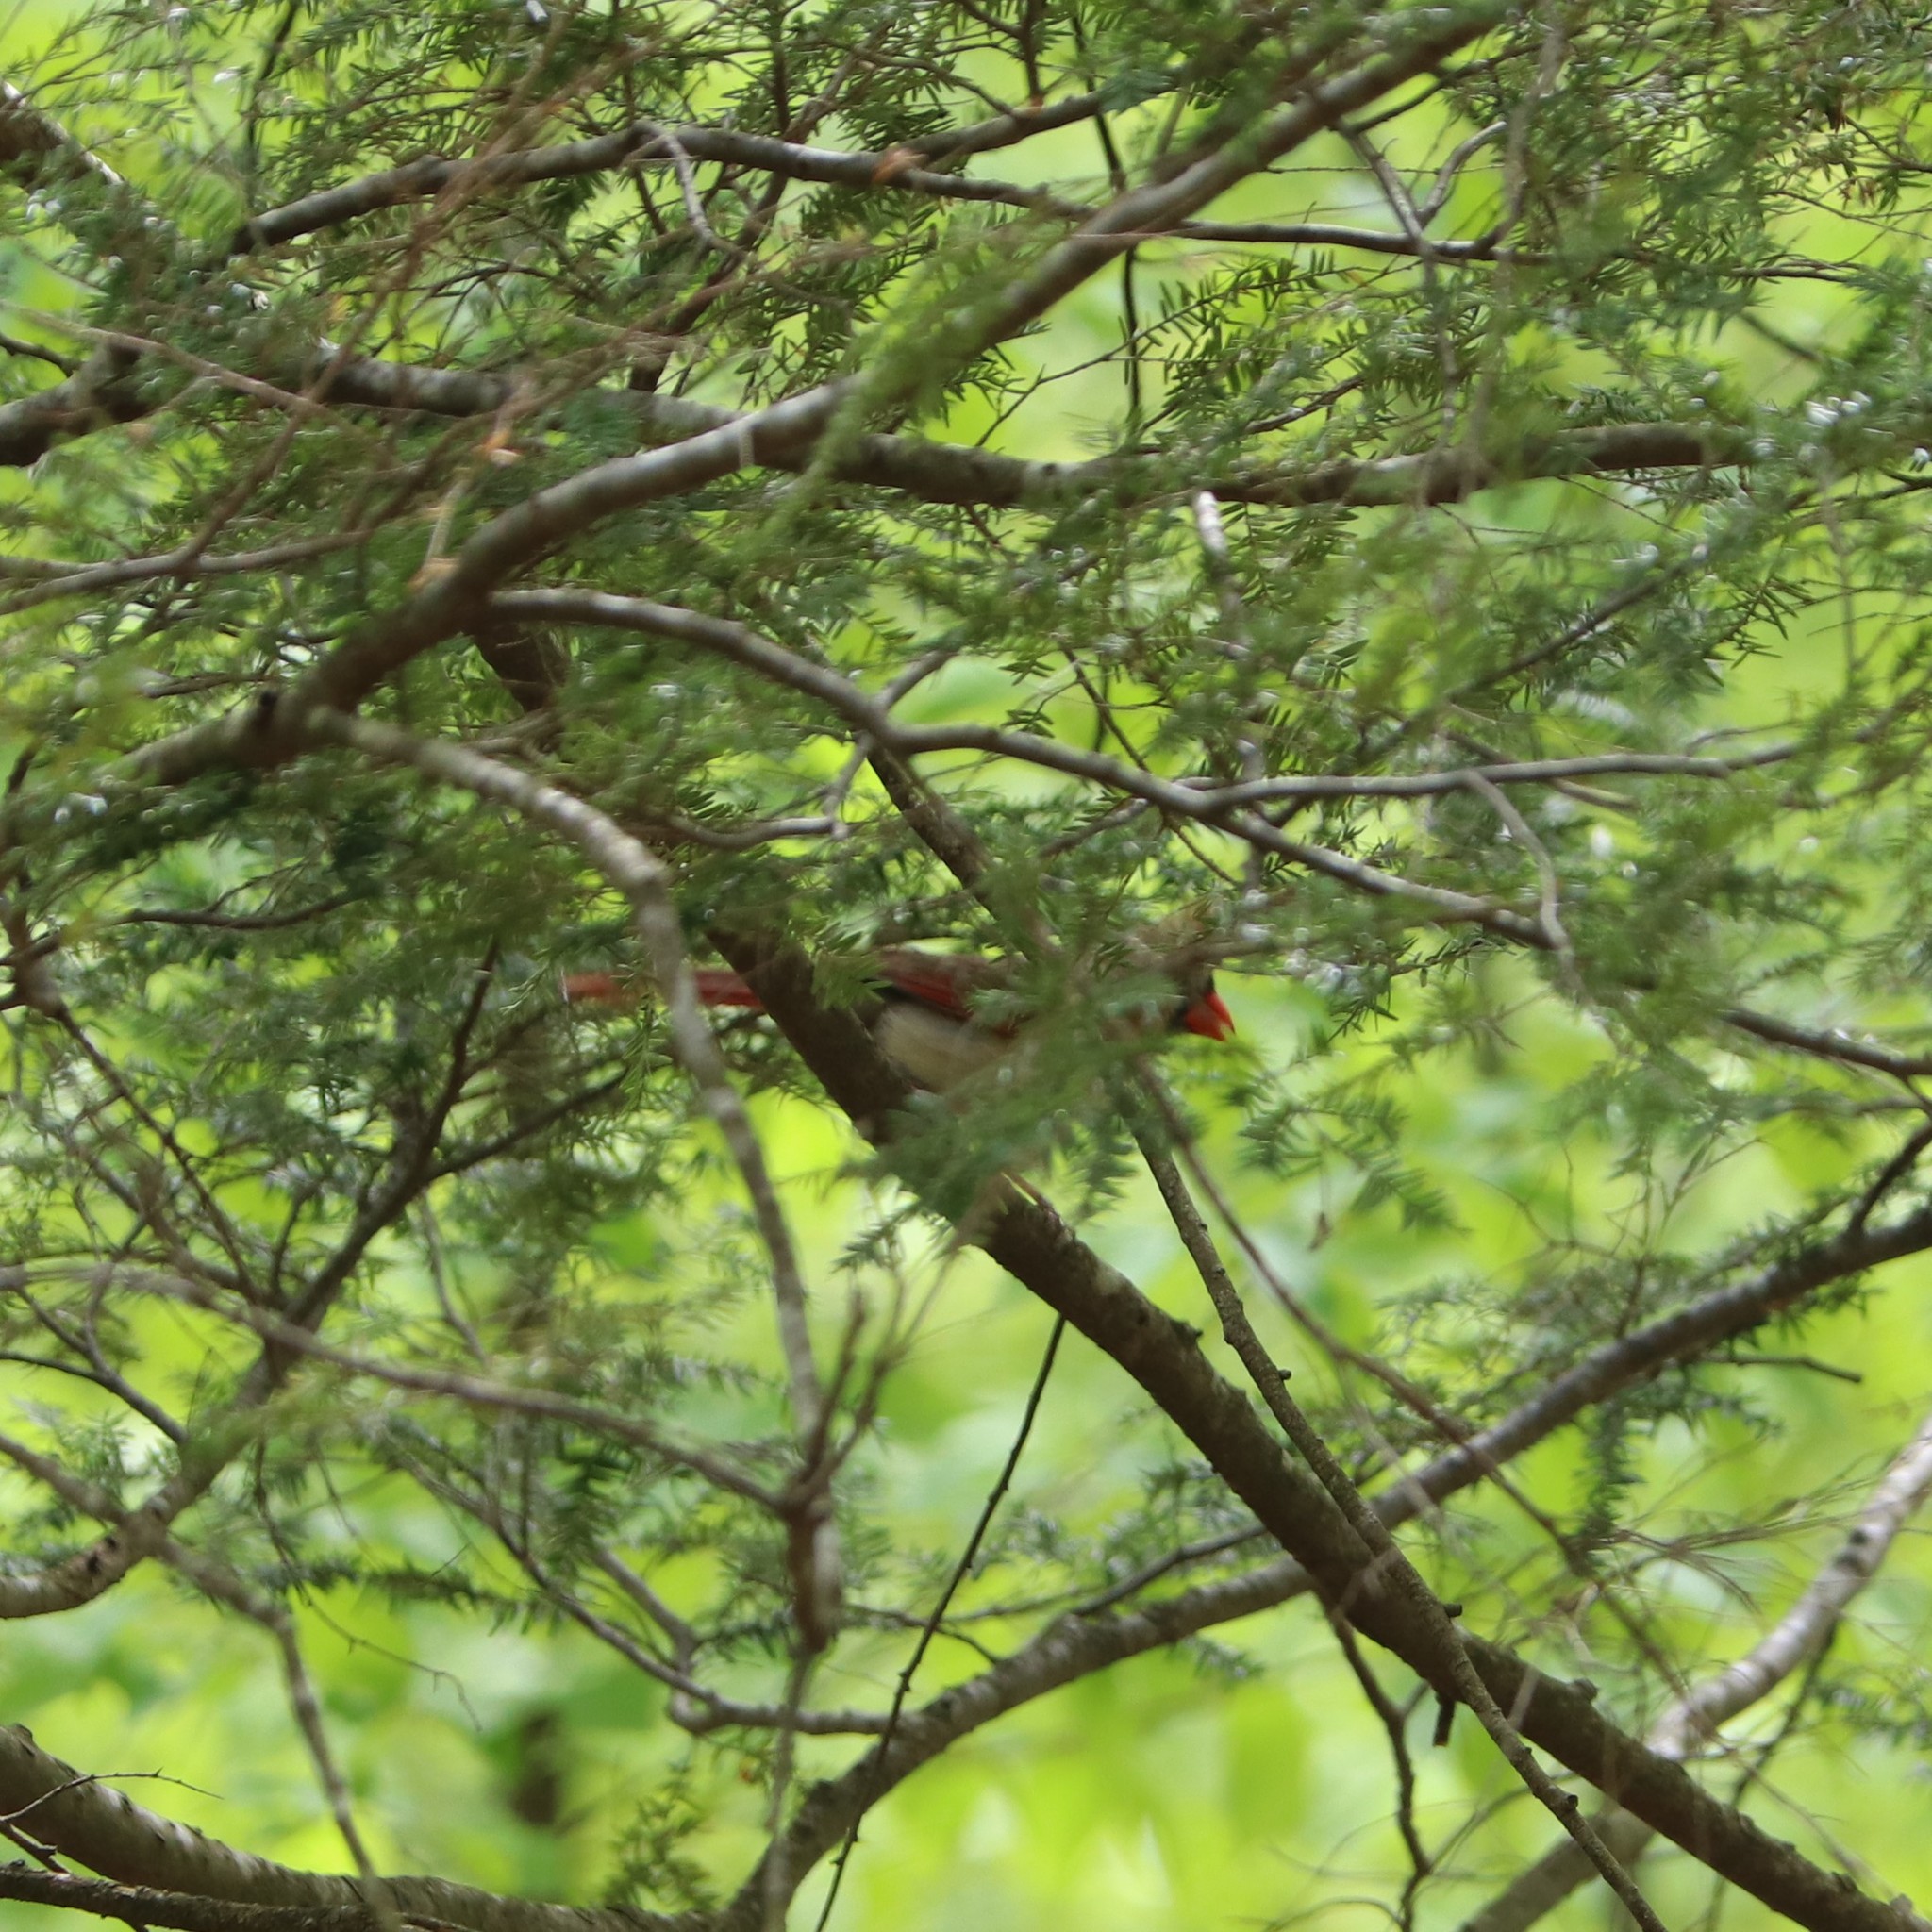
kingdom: Animalia
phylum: Chordata
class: Aves
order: Passeriformes
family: Cardinalidae
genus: Cardinalis
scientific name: Cardinalis cardinalis
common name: Northern cardinal
